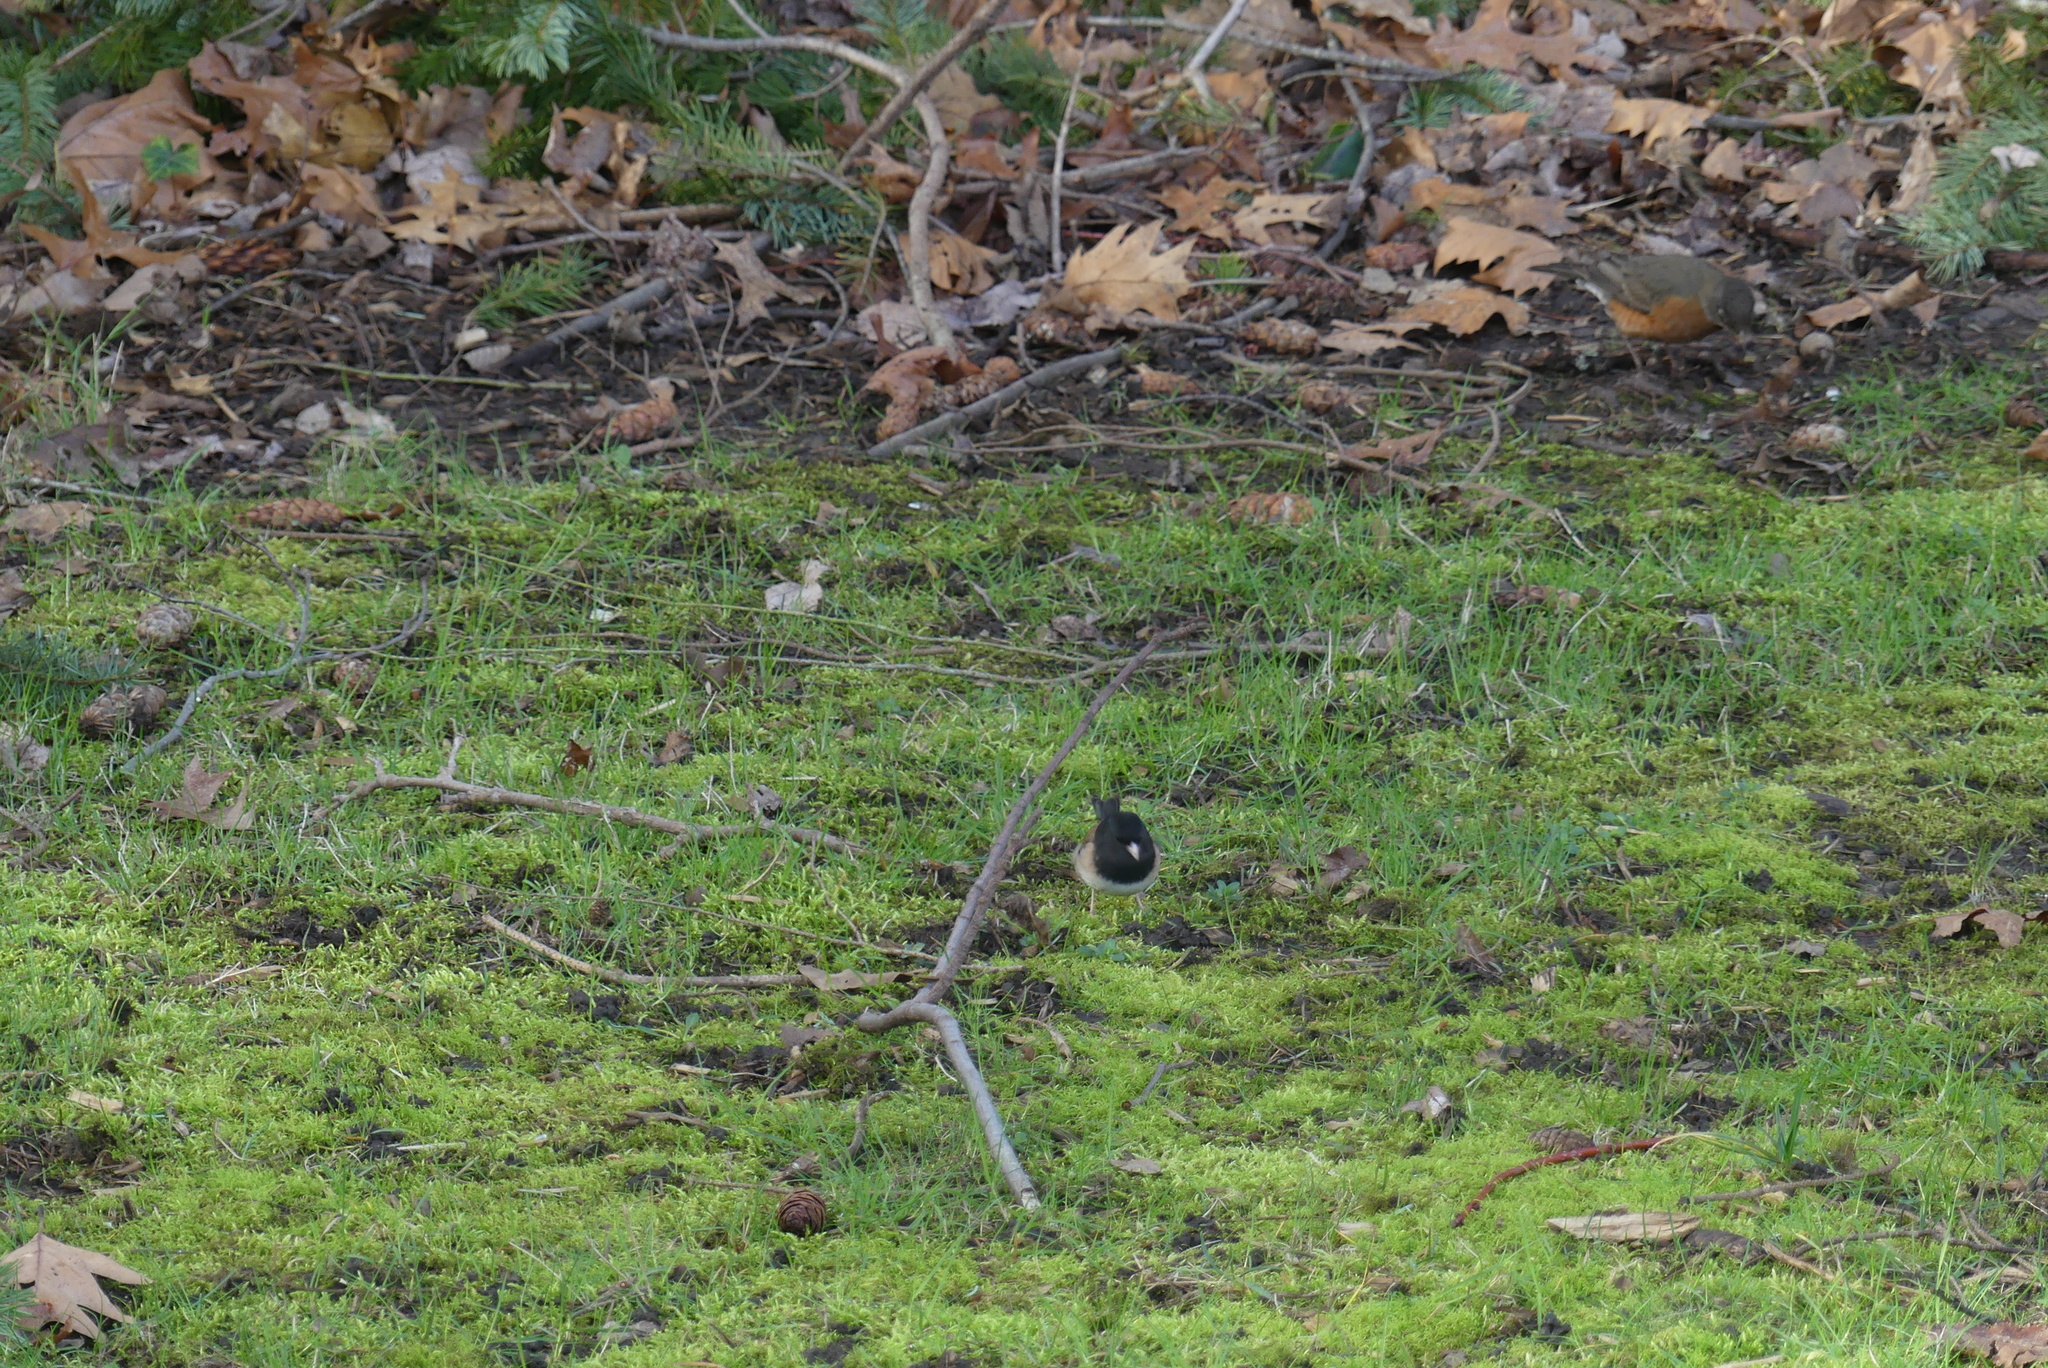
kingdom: Animalia
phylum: Chordata
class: Aves
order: Passeriformes
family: Passerellidae
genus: Junco
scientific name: Junco hyemalis
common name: Dark-eyed junco
